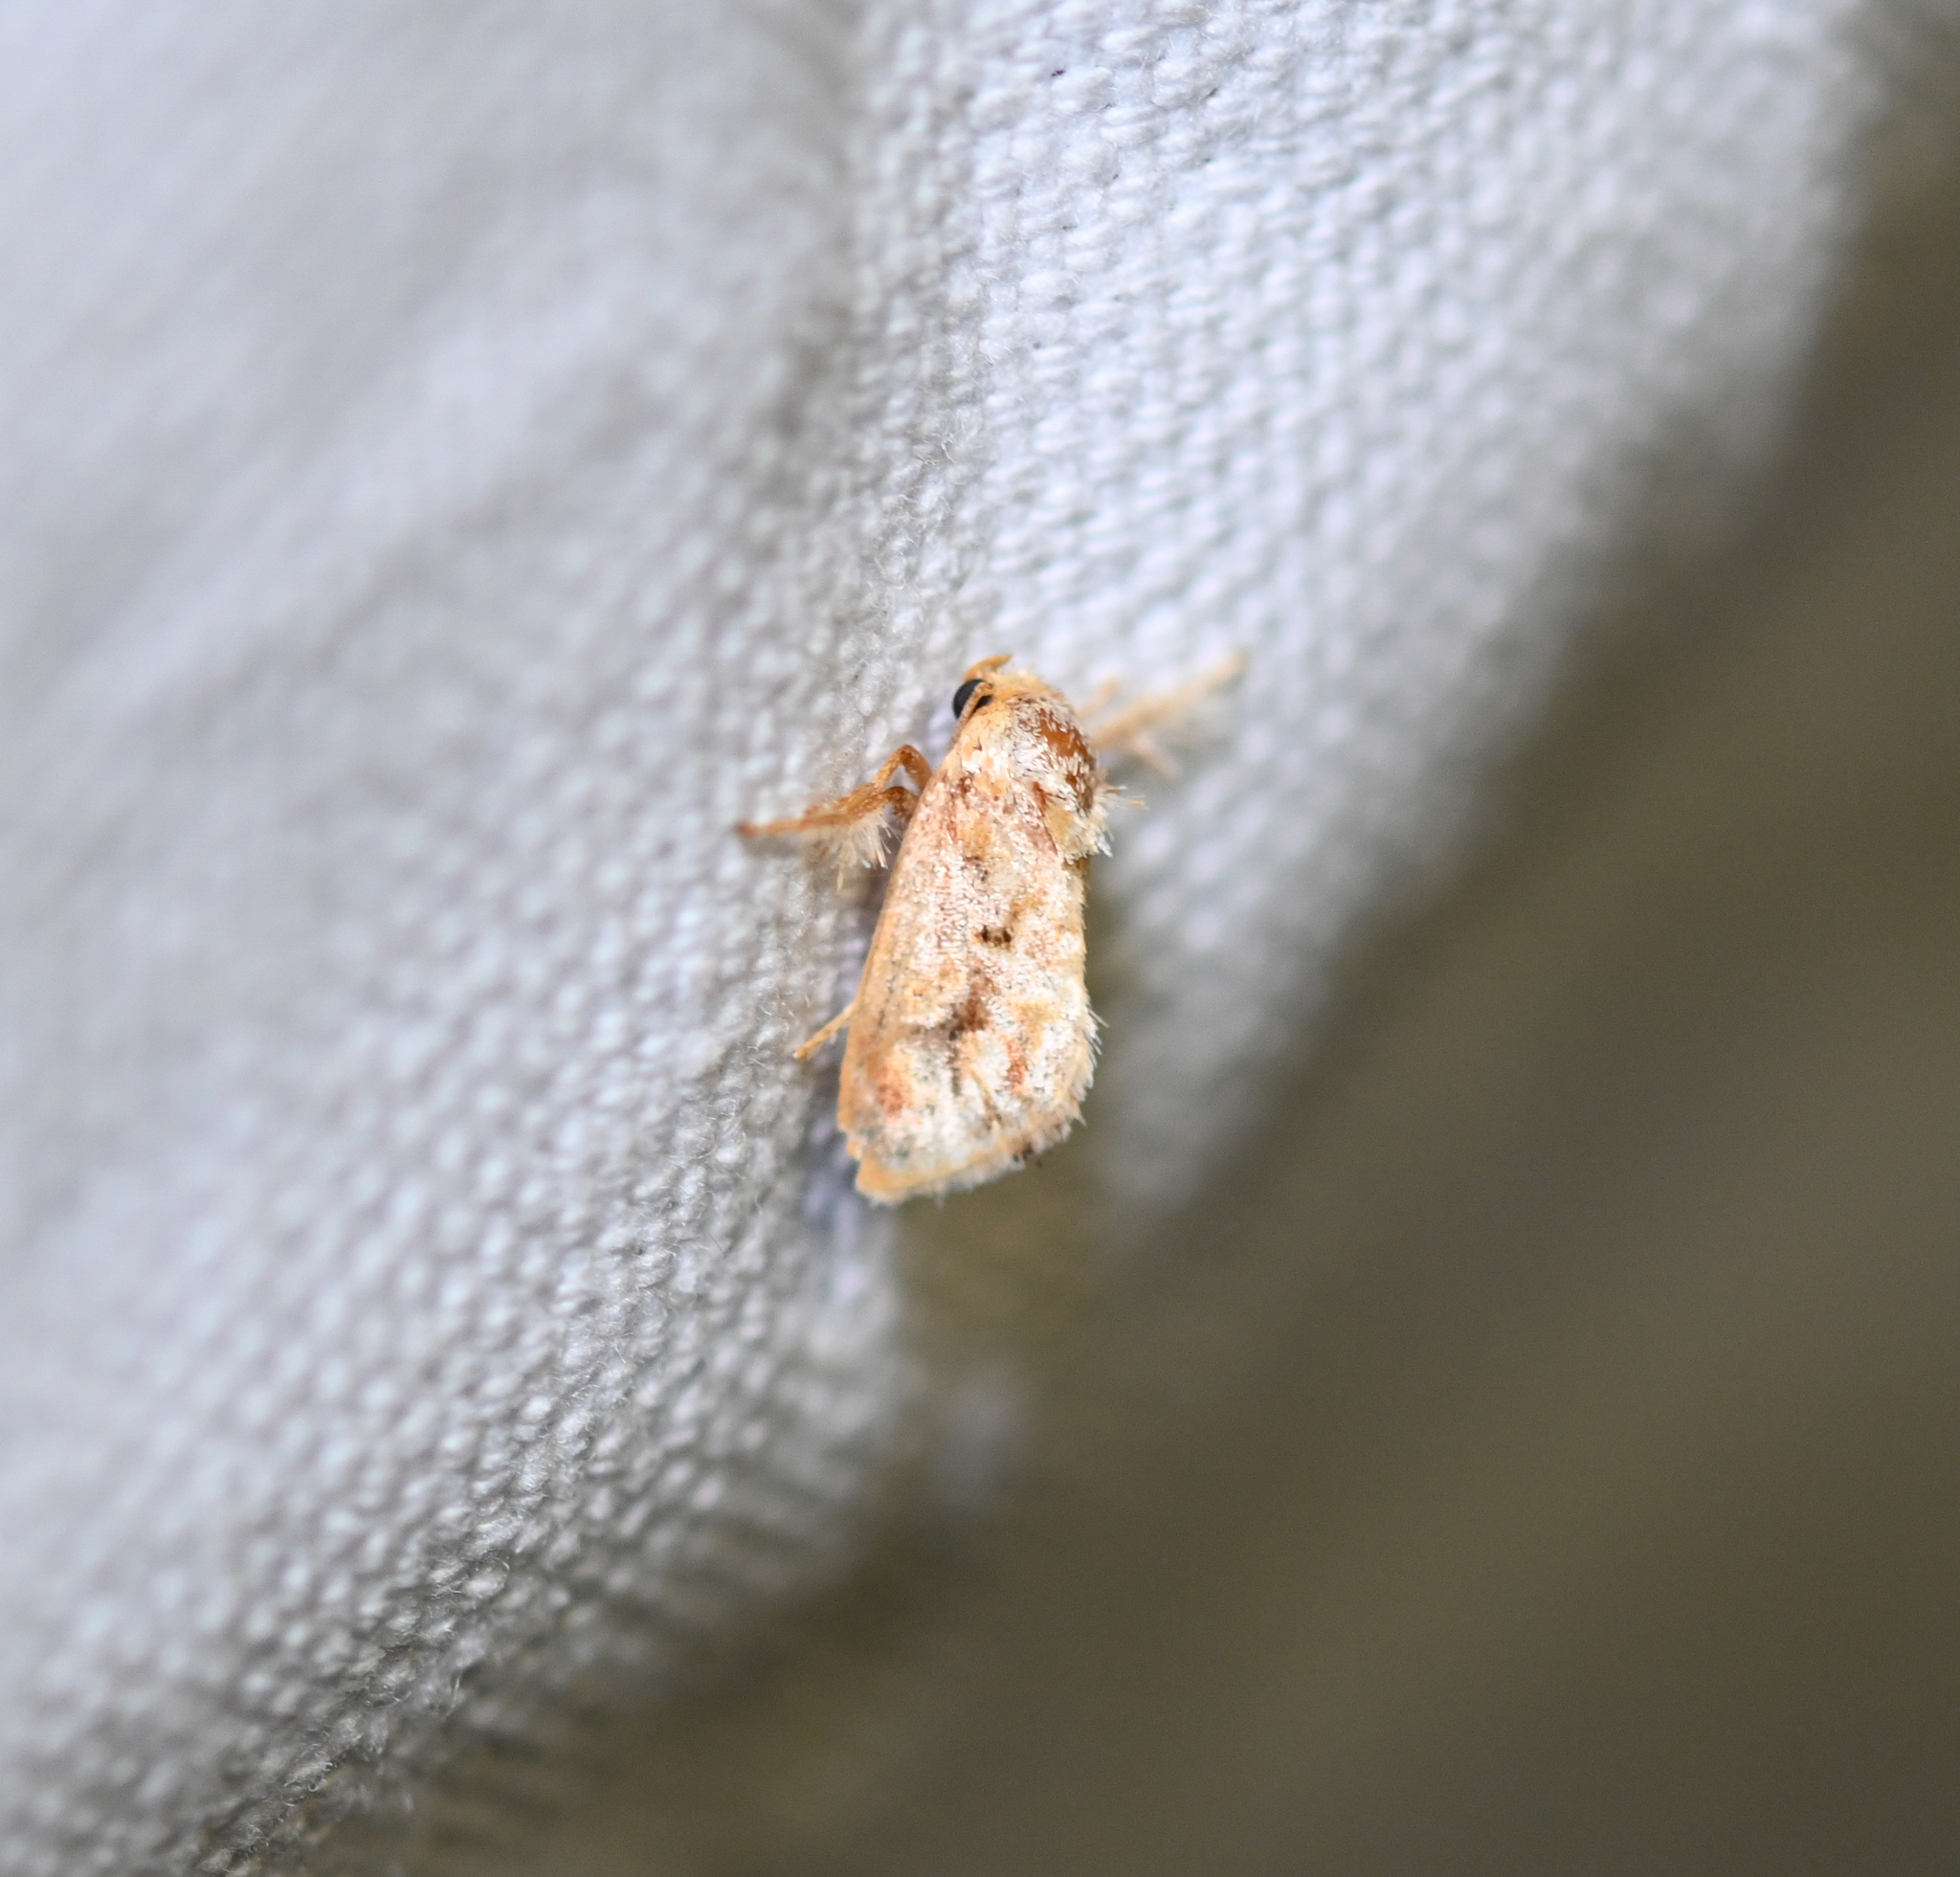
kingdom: Animalia
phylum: Arthropoda
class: Insecta
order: Lepidoptera
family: Limacodidae
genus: Isochaetes
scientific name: Isochaetes beutenmuelleri
